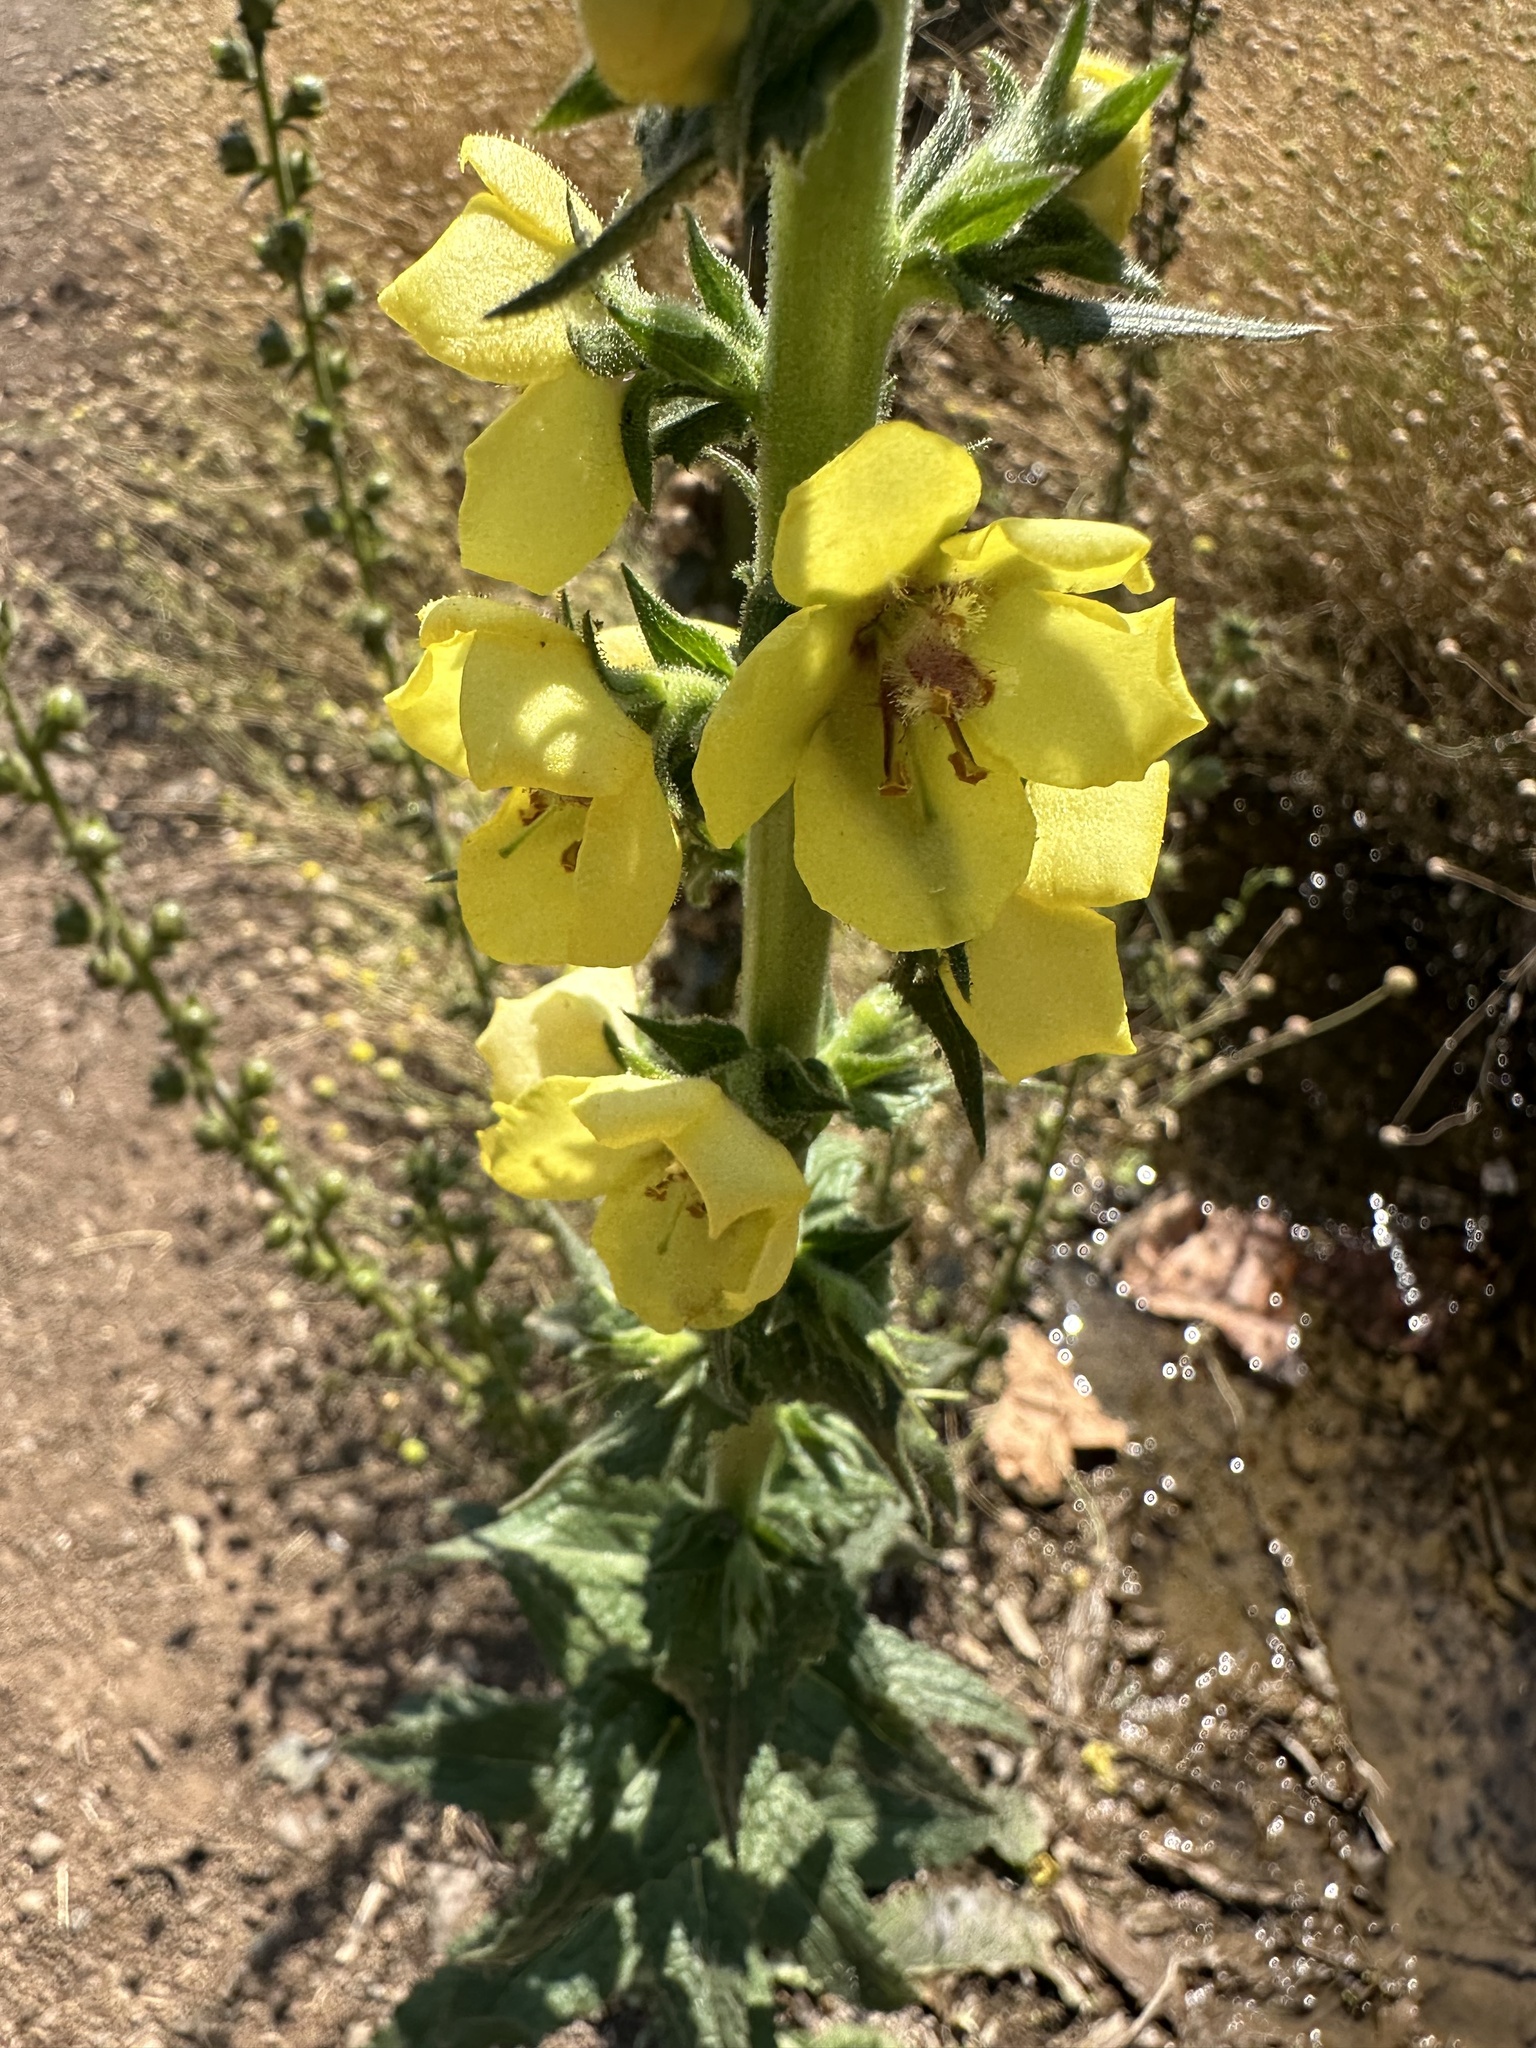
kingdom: Plantae
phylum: Tracheophyta
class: Magnoliopsida
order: Lamiales
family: Scrophulariaceae
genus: Verbascum
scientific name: Verbascum virgatum
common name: Twiggy mullein
